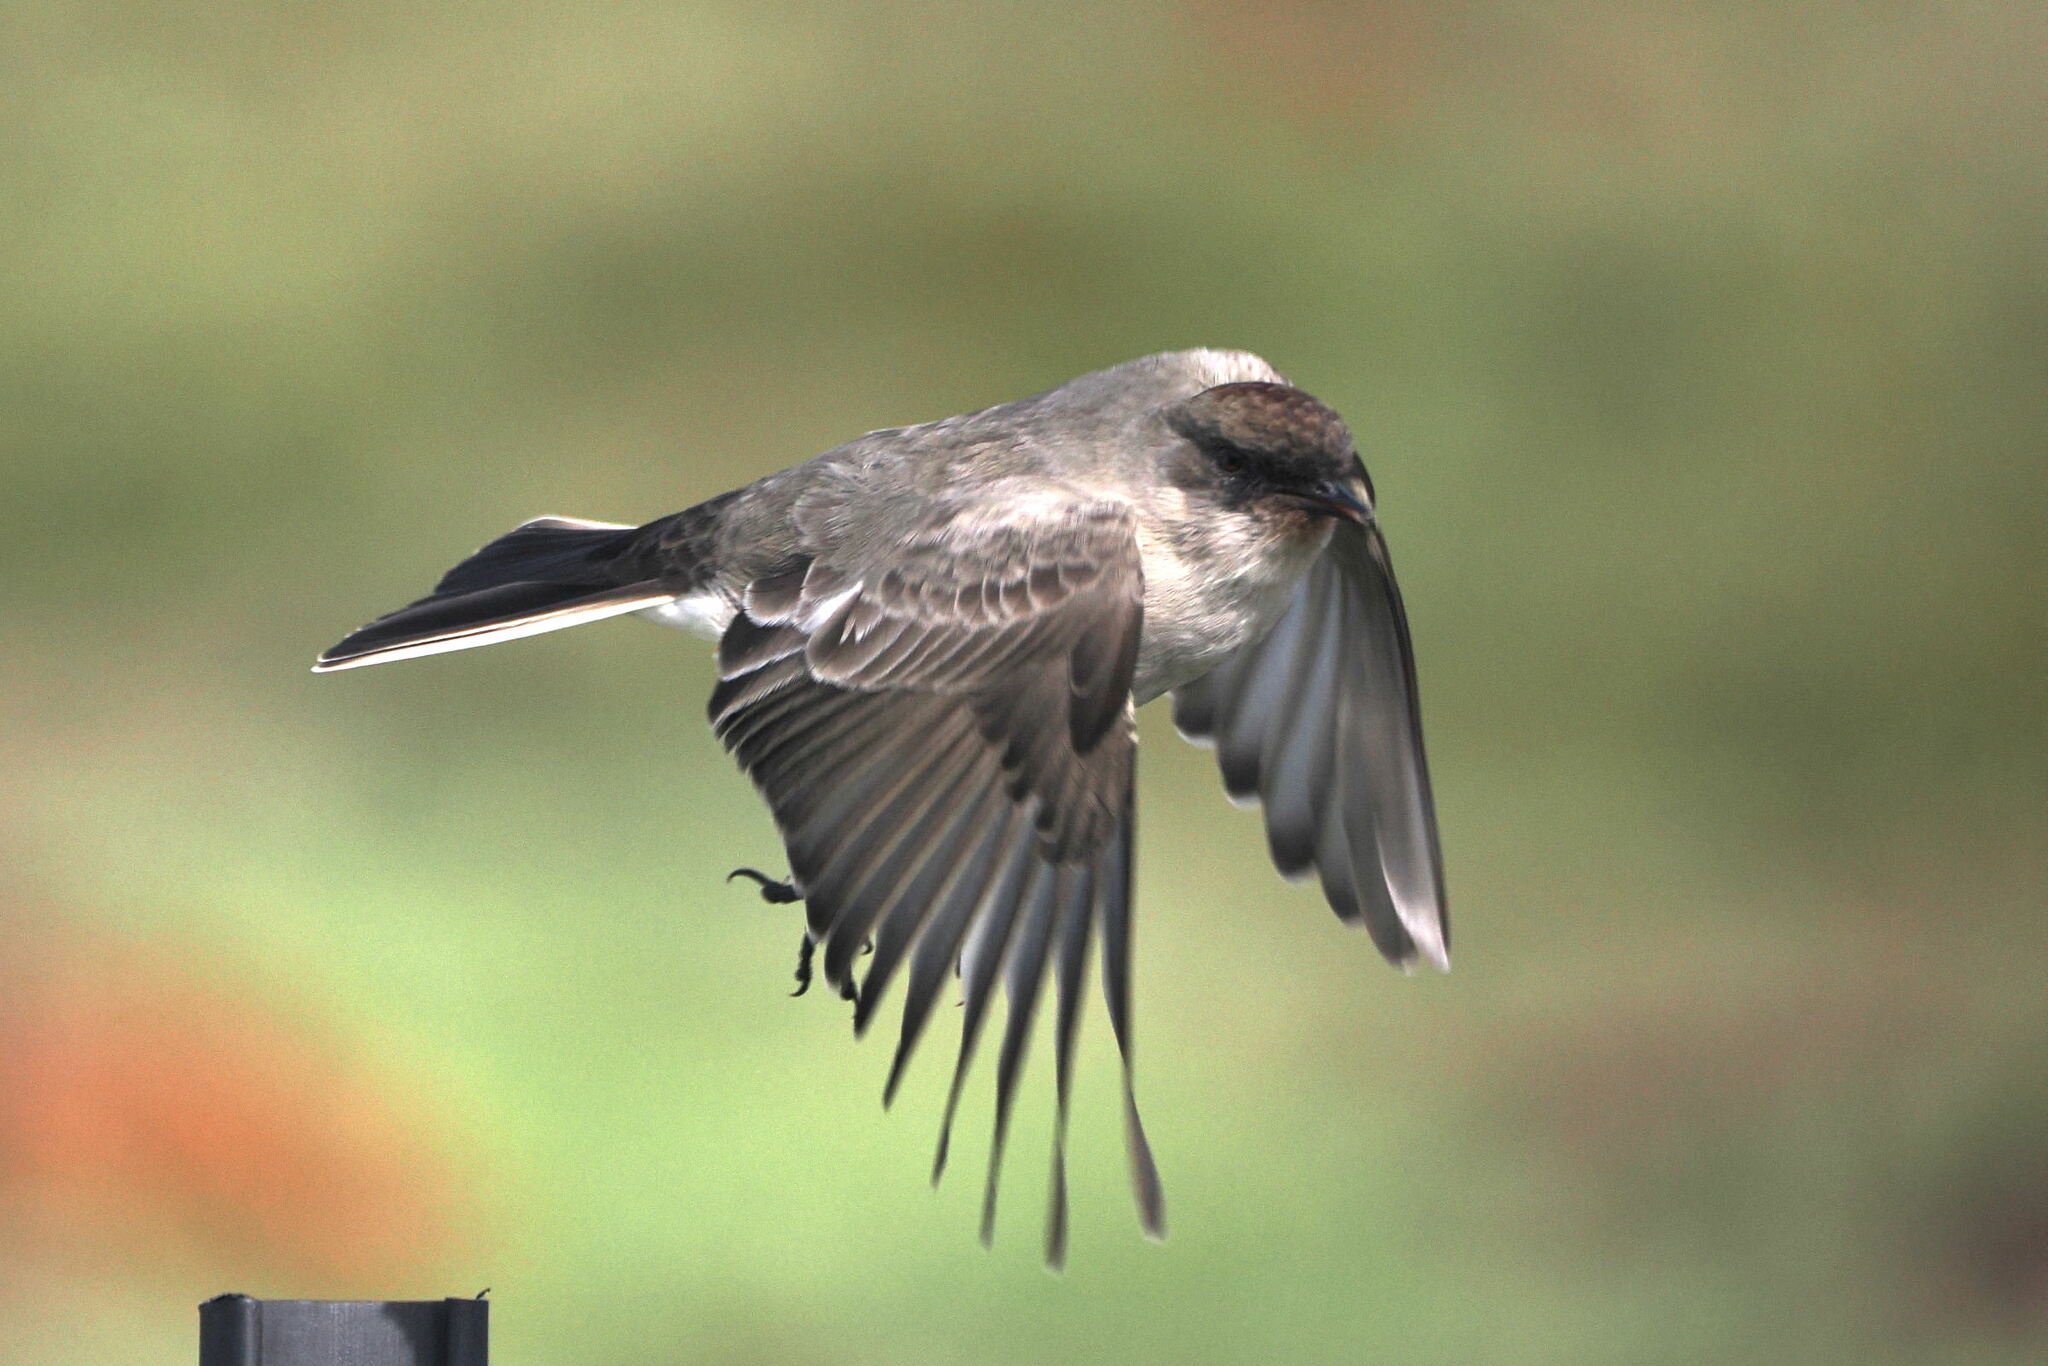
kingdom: Animalia
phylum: Chordata
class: Aves
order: Passeriformes
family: Tyrannidae
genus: Muscisaxicola
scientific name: Muscisaxicola maclovianus
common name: Dark-faced ground tyrant
